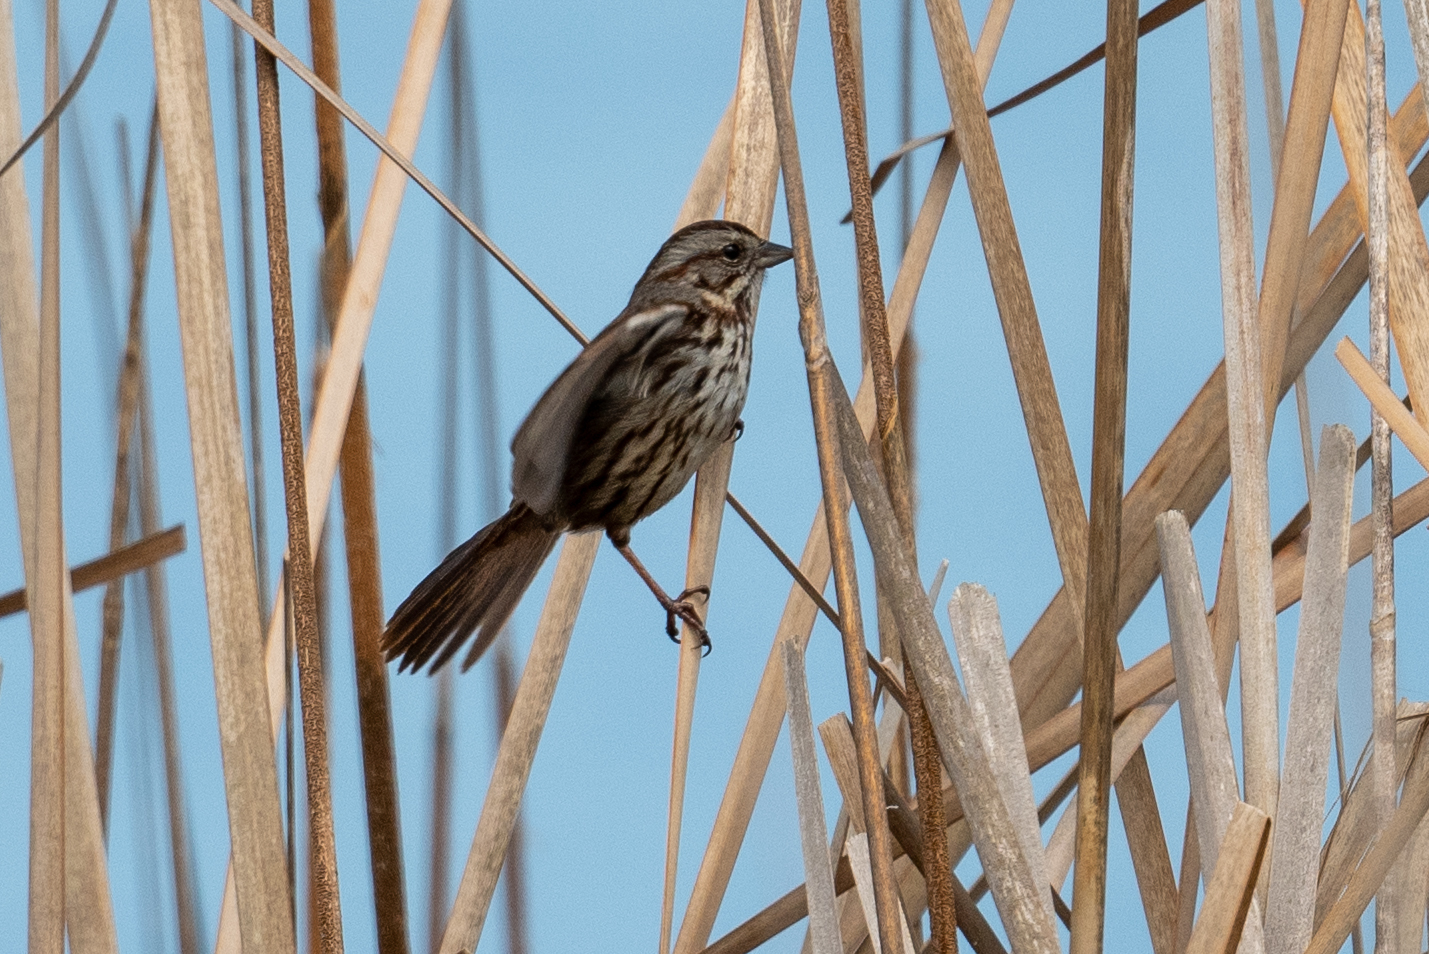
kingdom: Animalia
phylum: Chordata
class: Aves
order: Passeriformes
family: Passerellidae
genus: Melospiza
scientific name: Melospiza melodia
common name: Song sparrow
